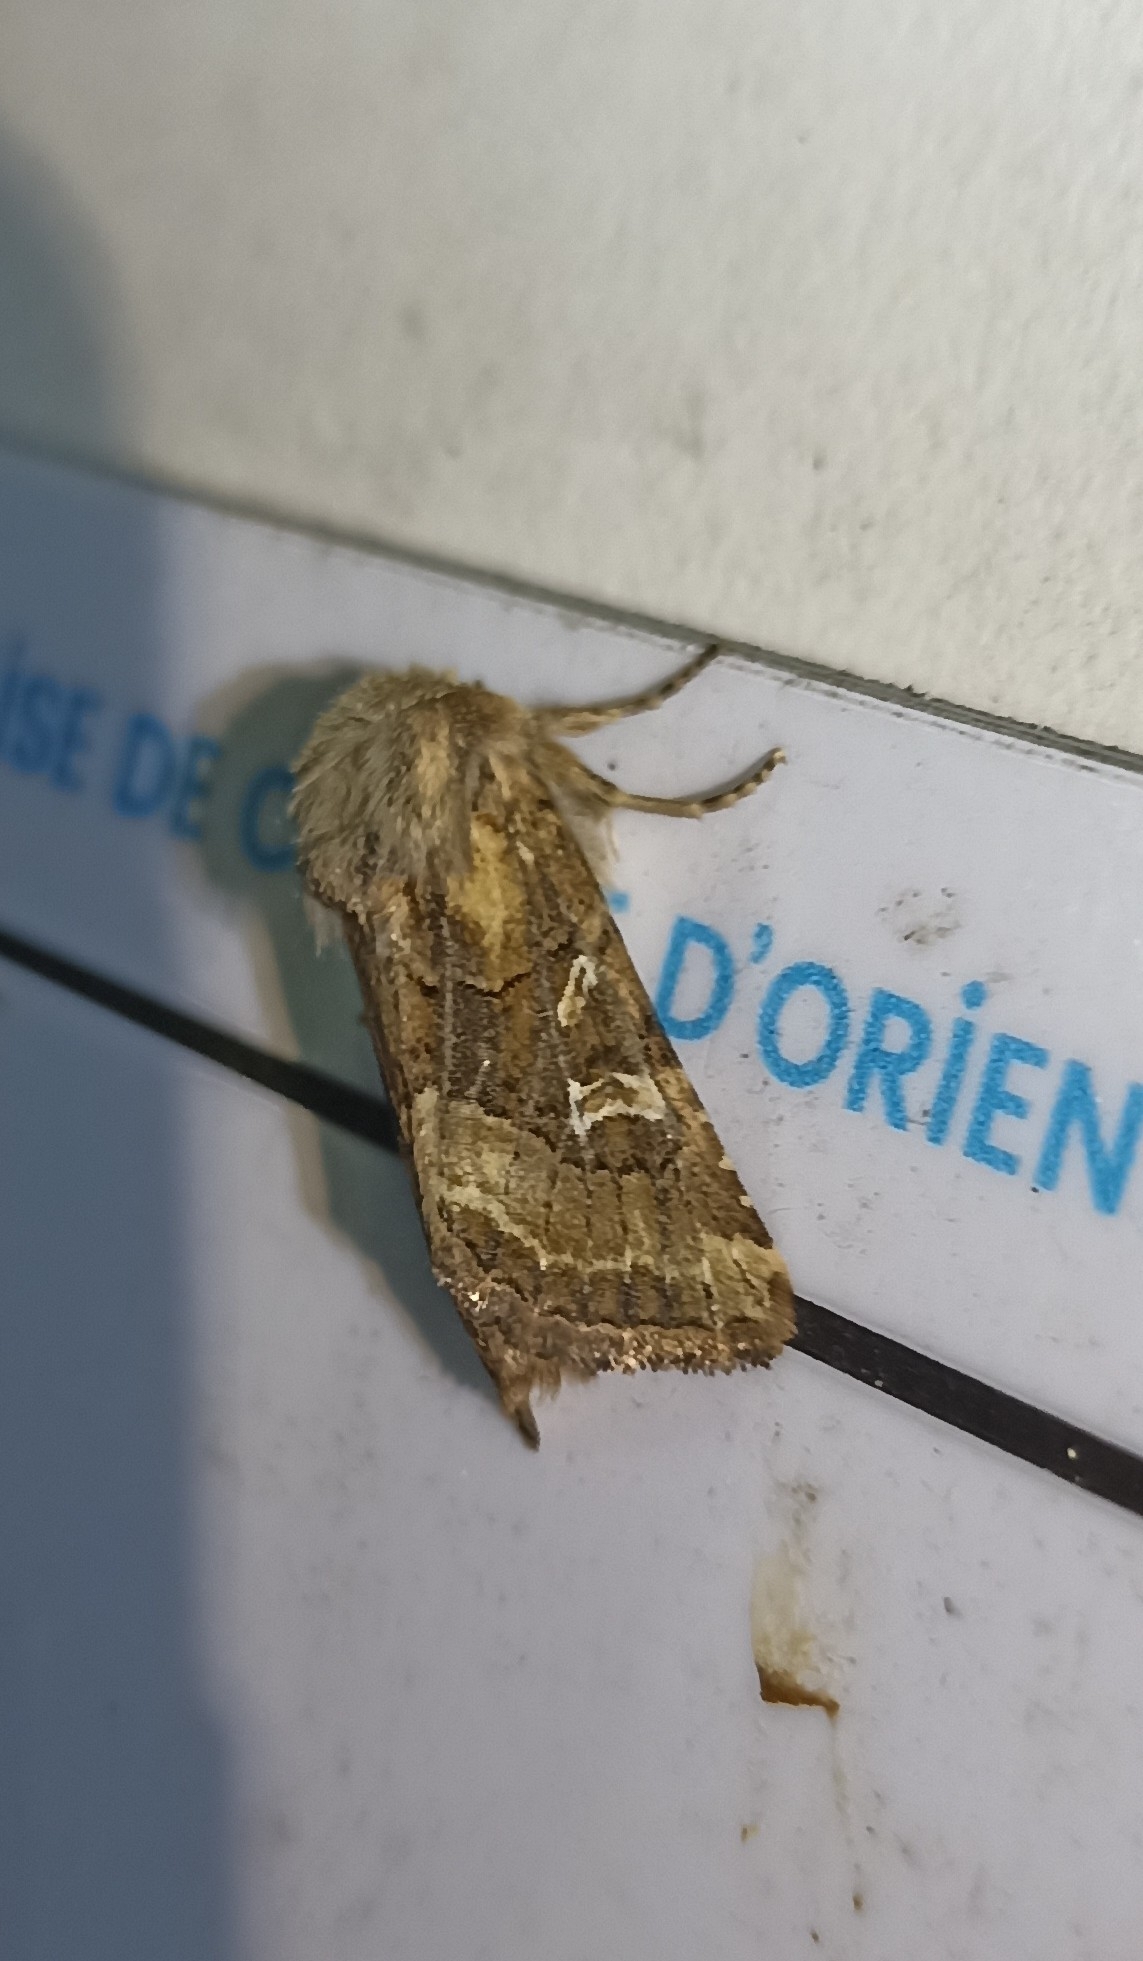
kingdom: Animalia
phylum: Arthropoda
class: Insecta
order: Lepidoptera
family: Noctuidae
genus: Luperina
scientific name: Luperina dumerilii
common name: Dumeril's rustic
